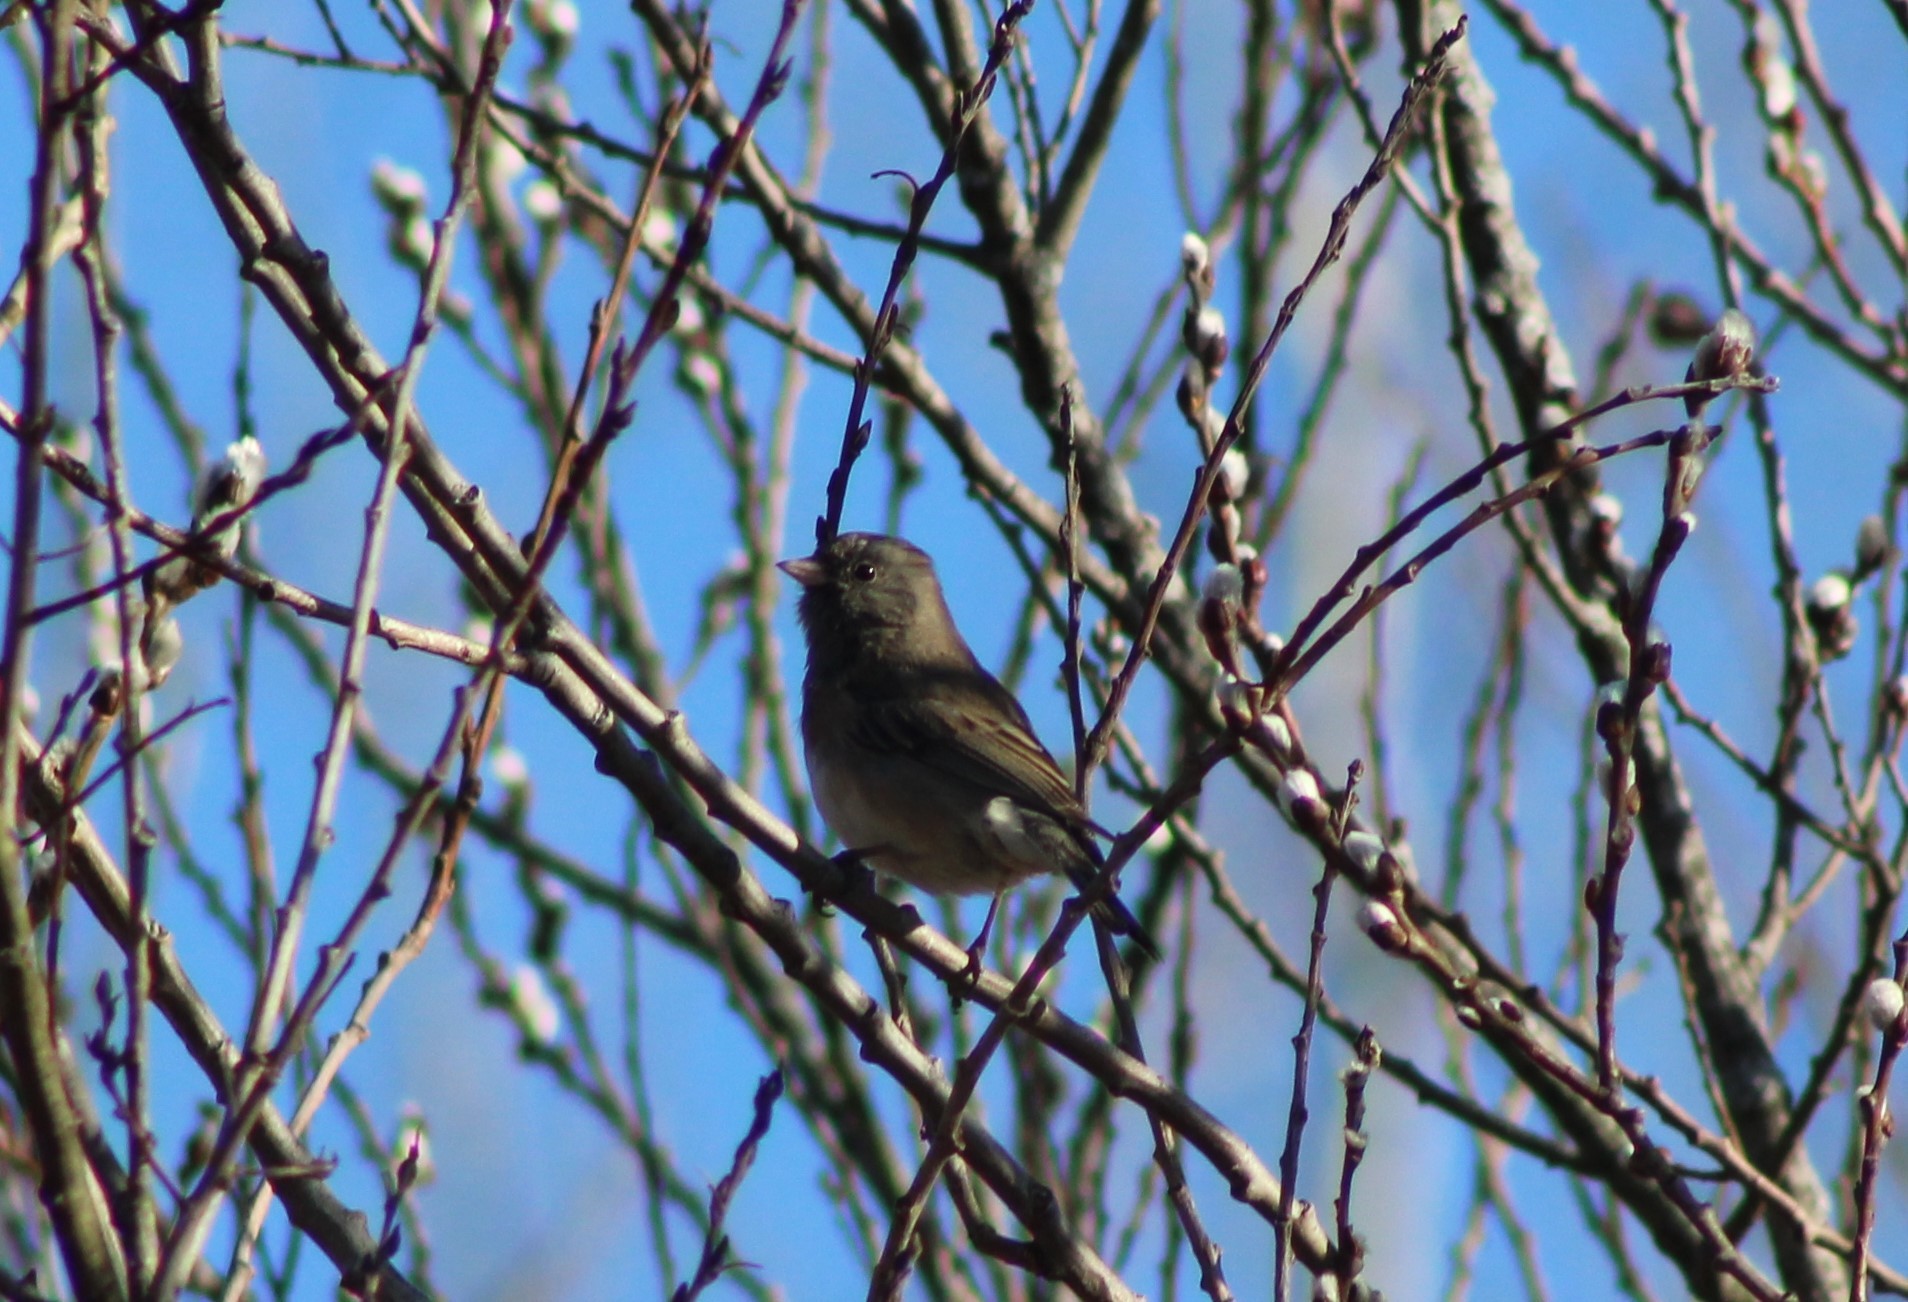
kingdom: Animalia
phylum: Chordata
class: Aves
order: Passeriformes
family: Passerellidae
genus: Junco
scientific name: Junco hyemalis
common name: Dark-eyed junco
